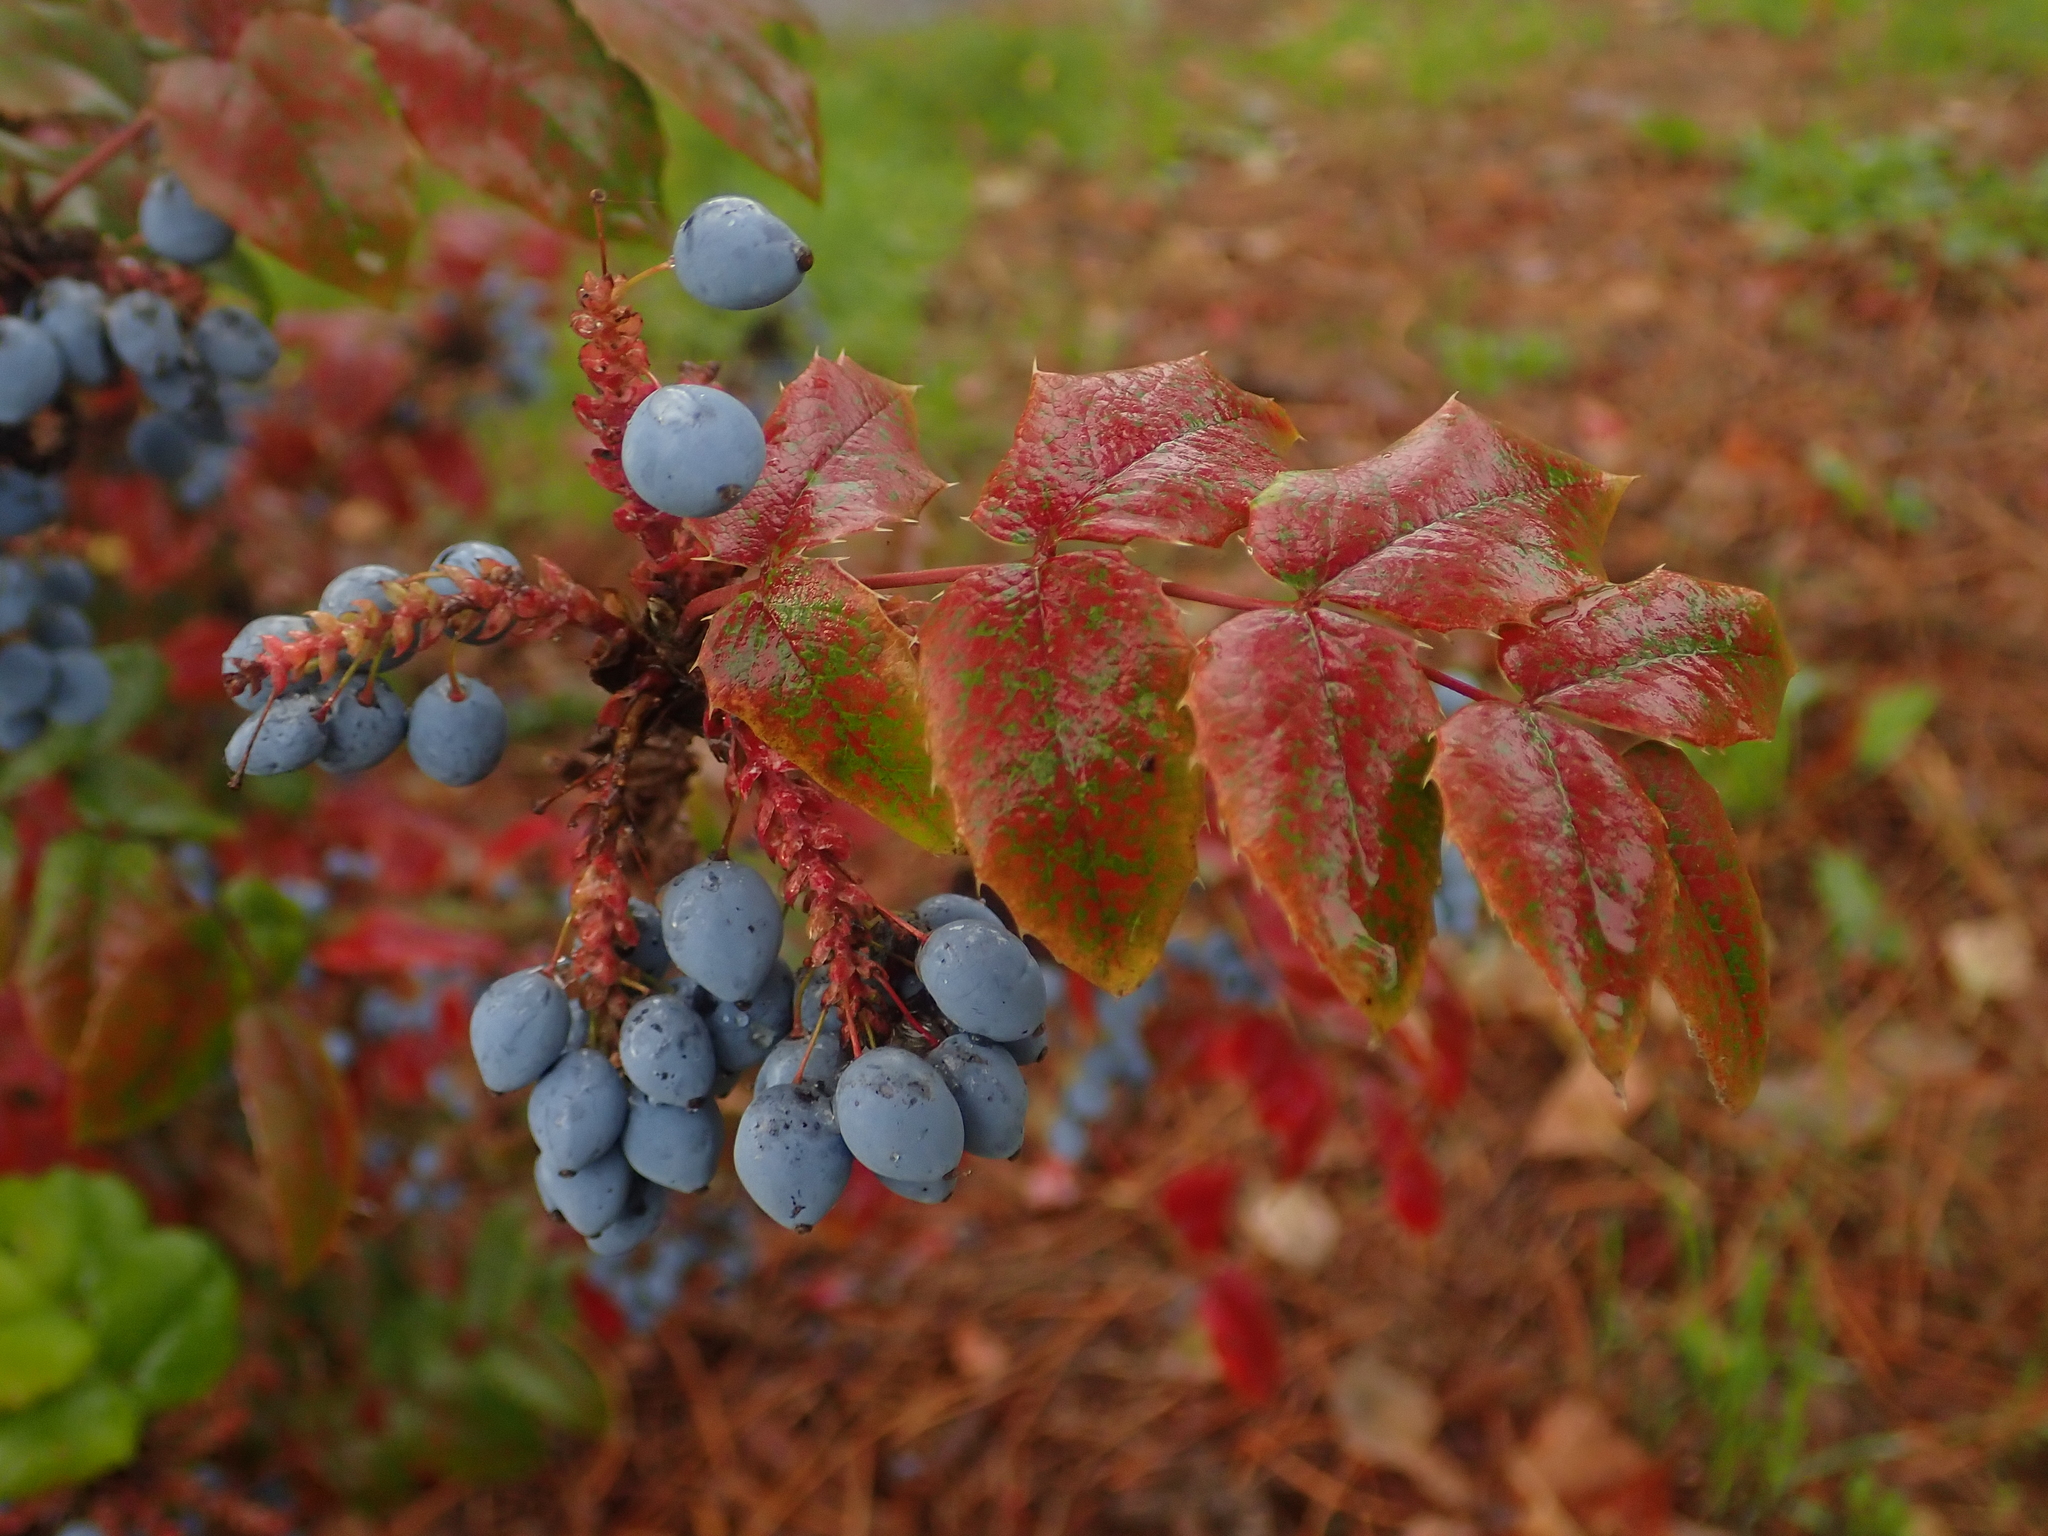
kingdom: Plantae
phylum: Tracheophyta
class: Magnoliopsida
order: Ranunculales
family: Berberidaceae
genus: Mahonia
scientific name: Mahonia aquifolium
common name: Oregon-grape
